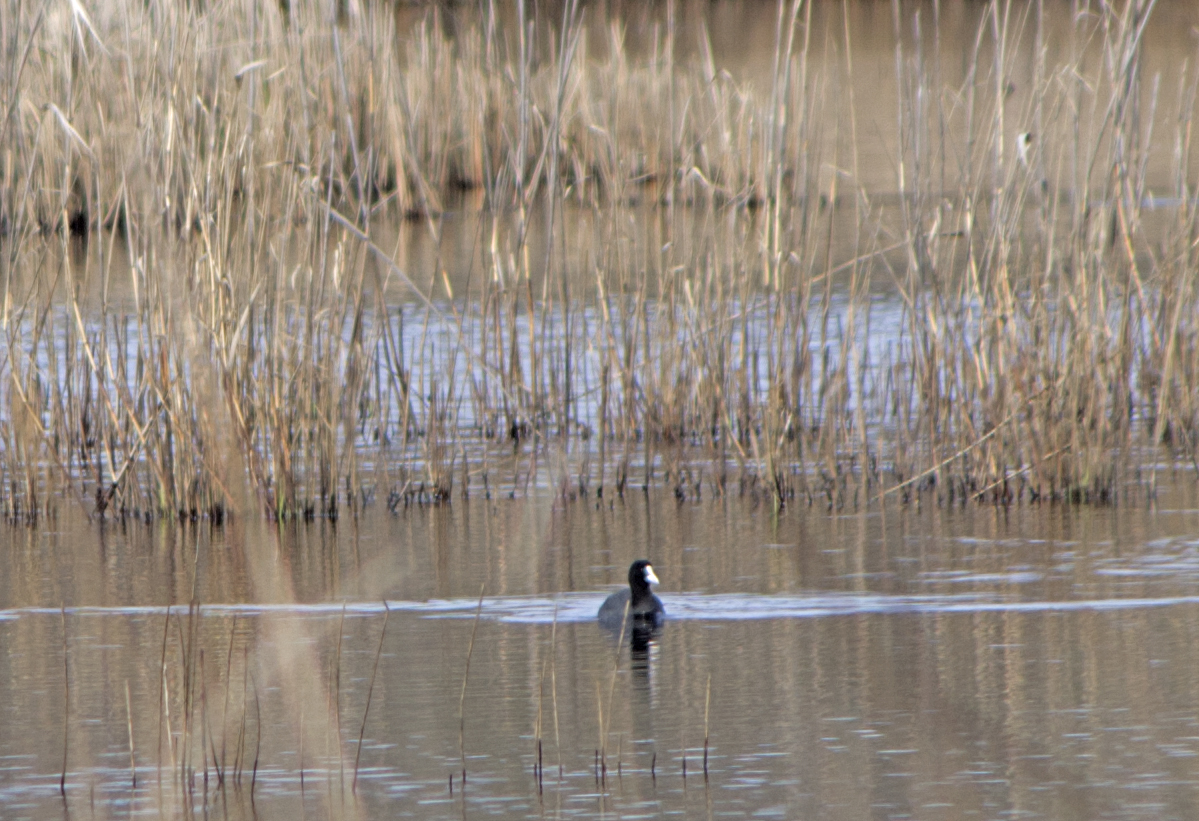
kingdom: Animalia
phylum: Chordata
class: Aves
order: Gruiformes
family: Rallidae
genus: Fulica
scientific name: Fulica atra
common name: Eurasian coot
